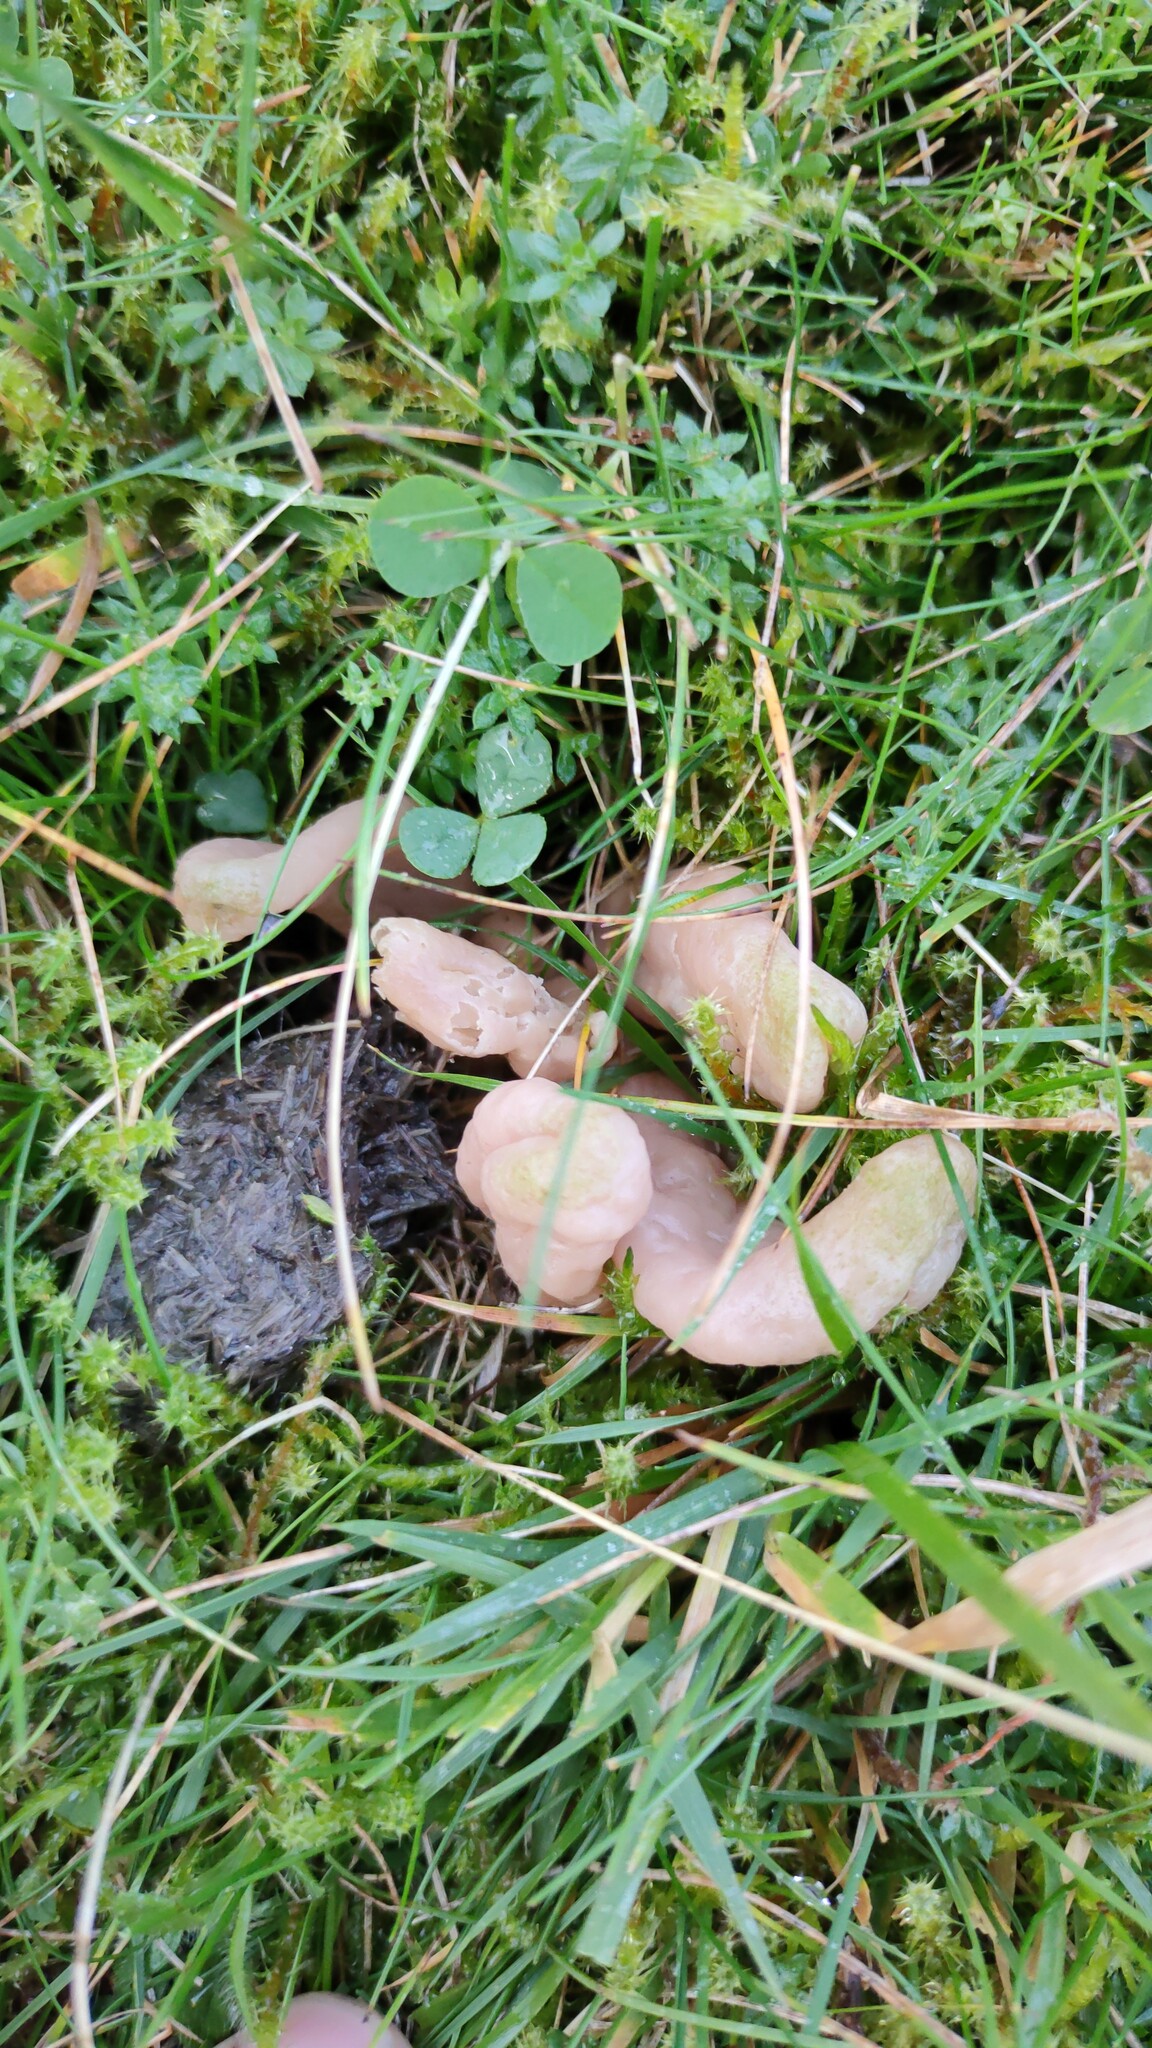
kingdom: Fungi
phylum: Basidiomycota
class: Agaricomycetes
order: Agaricales
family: Clavariaceae
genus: Clavaria
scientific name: Clavaria fumosa
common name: Smoky spindles
